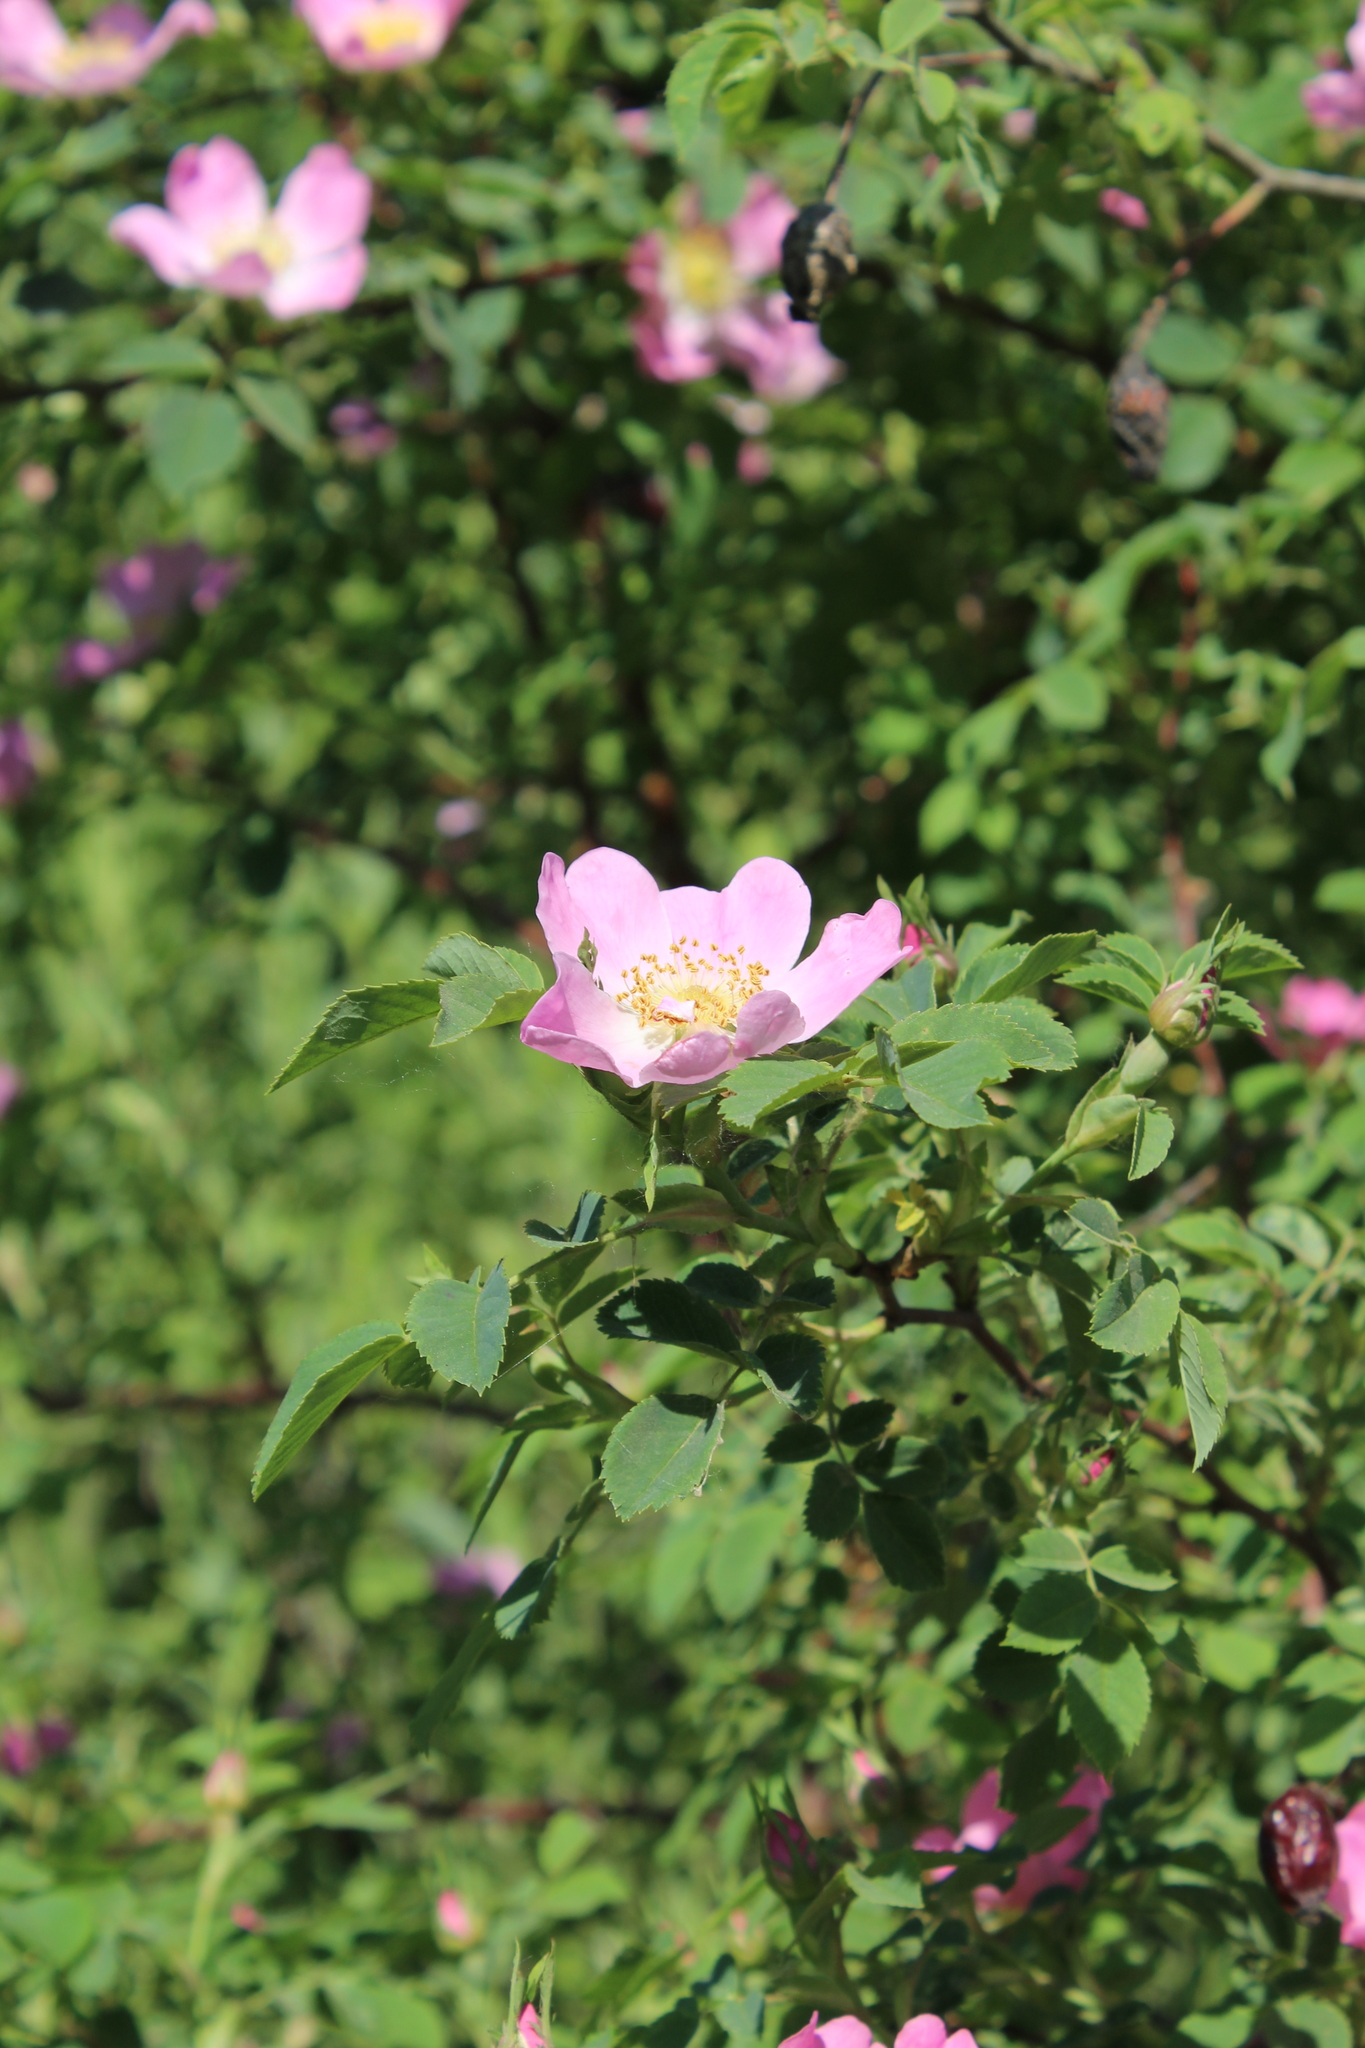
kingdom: Plantae
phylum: Tracheophyta
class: Magnoliopsida
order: Rosales
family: Rosaceae
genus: Rosa
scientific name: Rosa canina
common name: Dog rose
